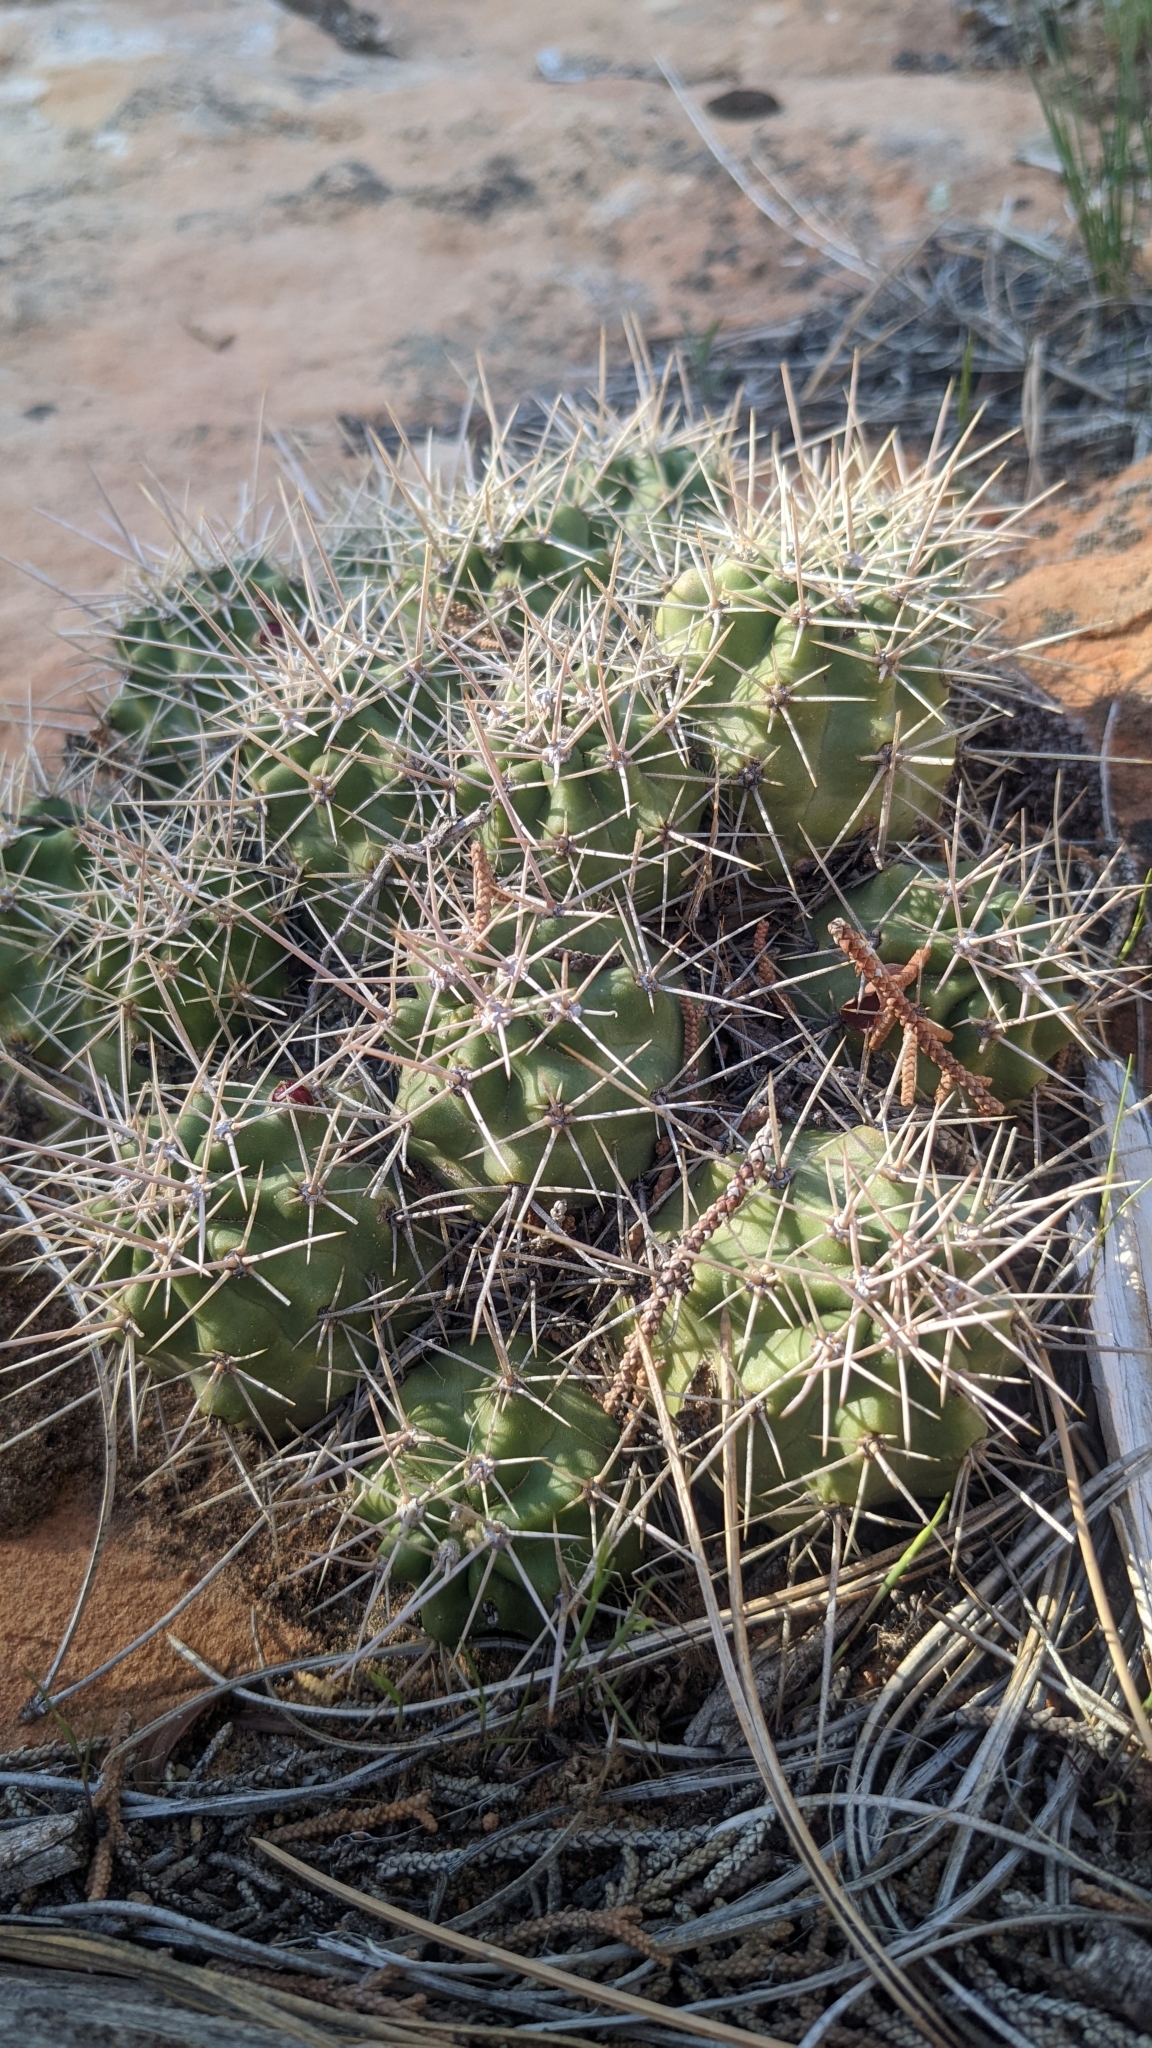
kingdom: Plantae
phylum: Tracheophyta
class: Magnoliopsida
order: Caryophyllales
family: Cactaceae
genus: Echinocereus
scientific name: Echinocereus triglochidiatus
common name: Claretcup hedgehog
